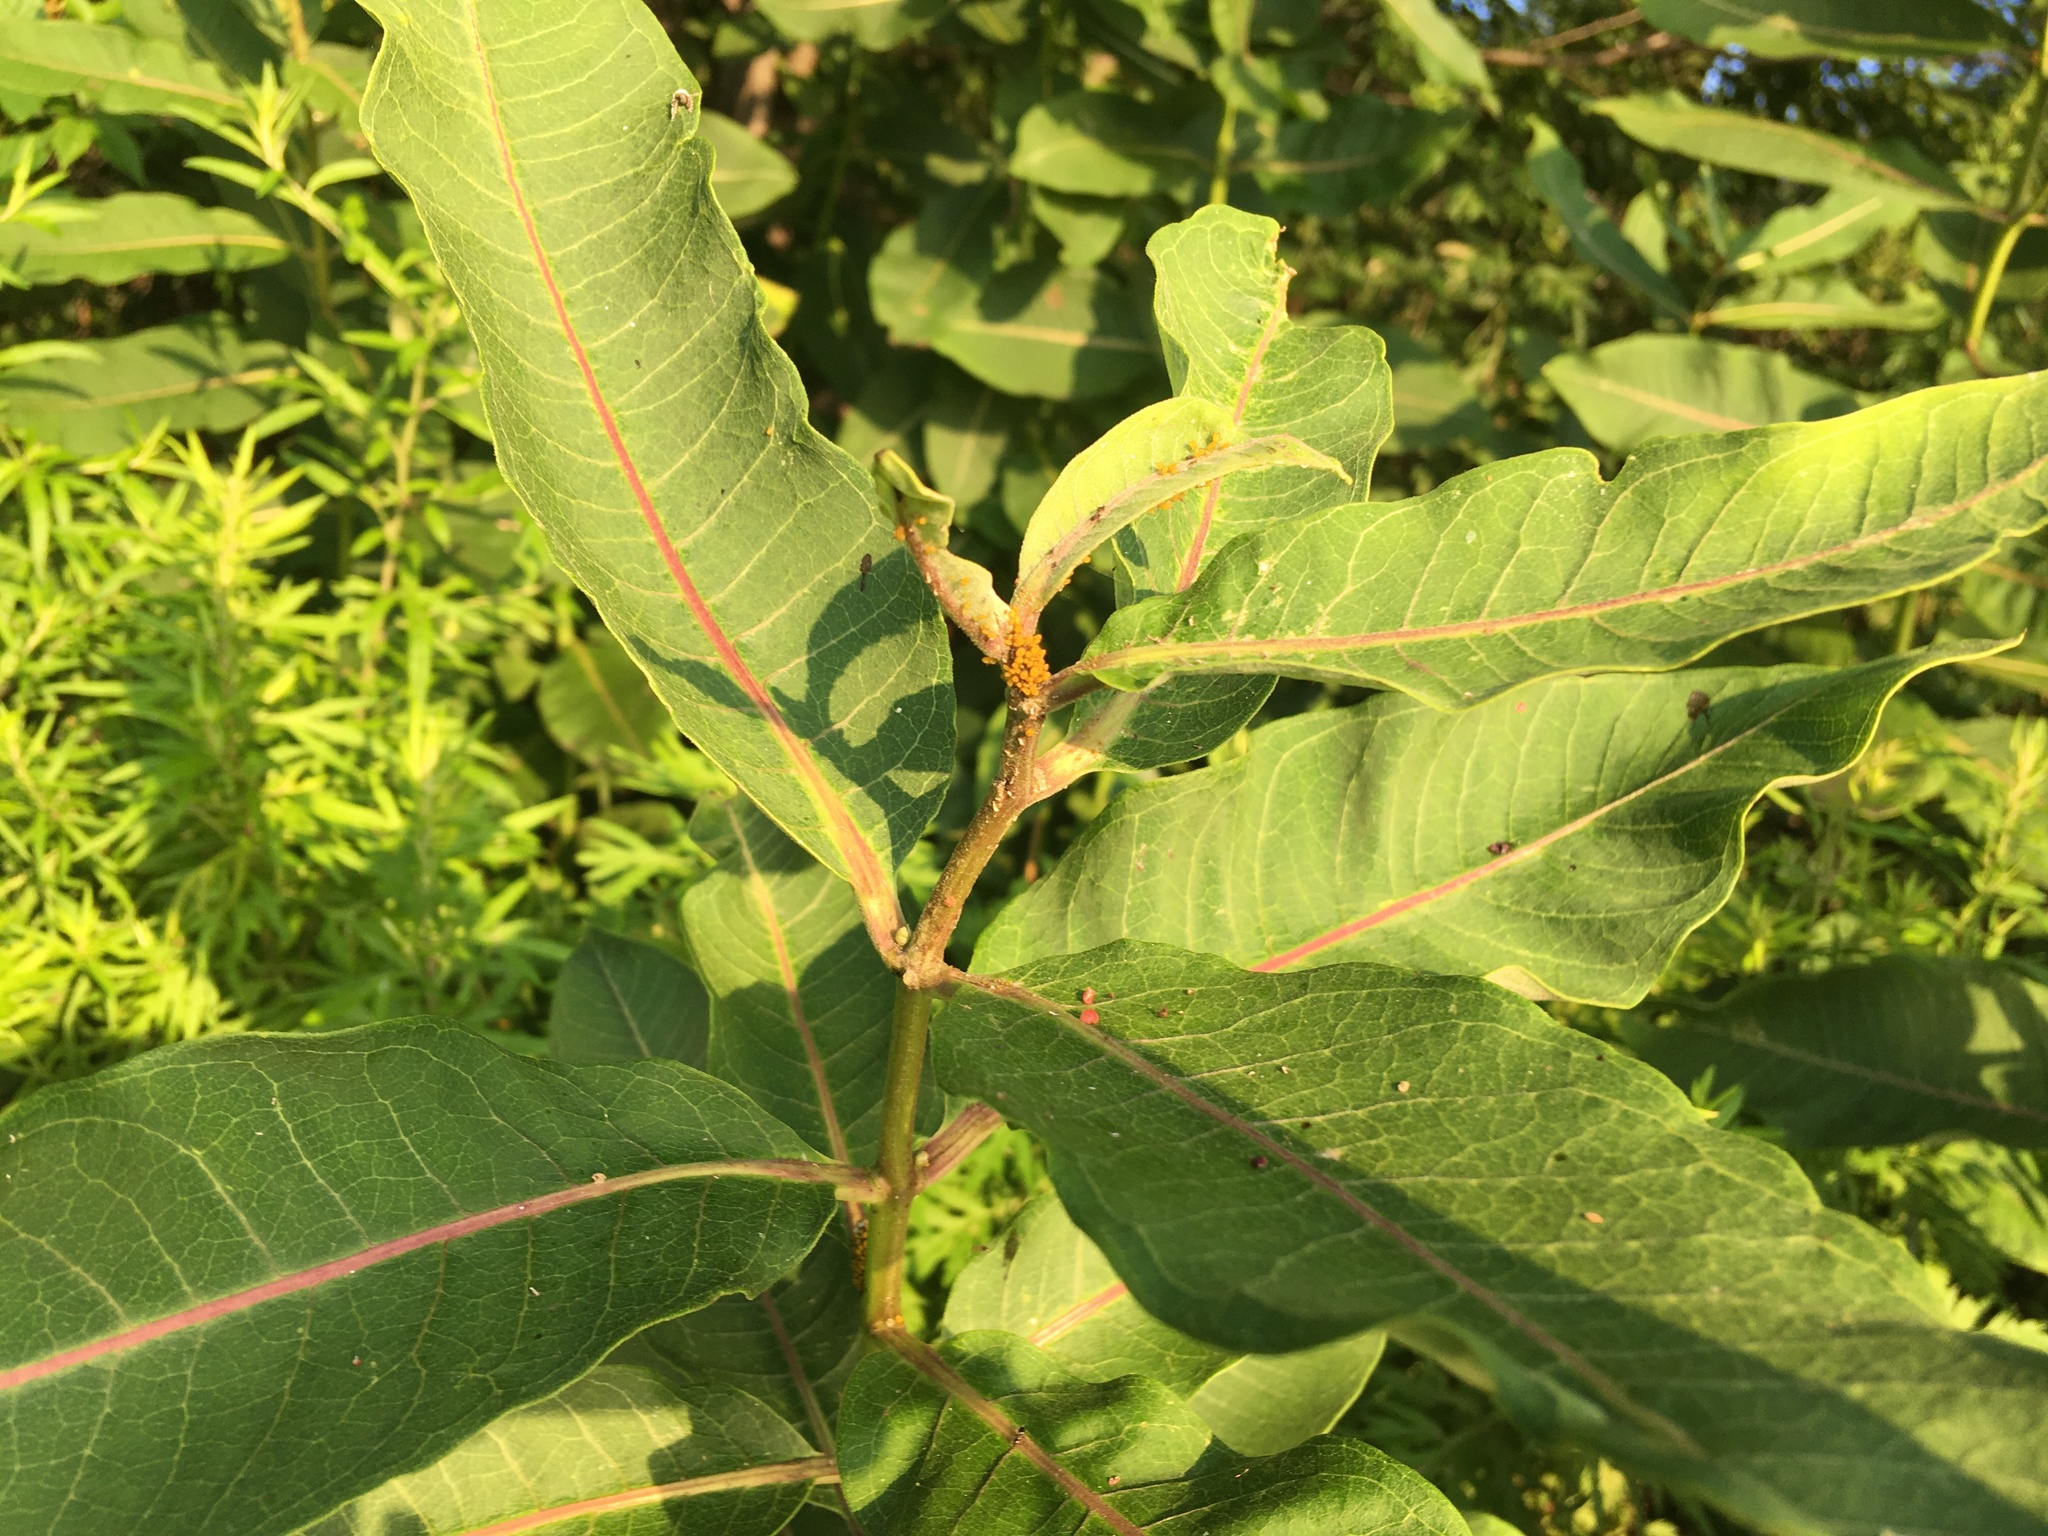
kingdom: Plantae
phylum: Tracheophyta
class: Magnoliopsida
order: Gentianales
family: Apocynaceae
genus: Asclepias
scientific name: Asclepias syriaca
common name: Common milkweed
